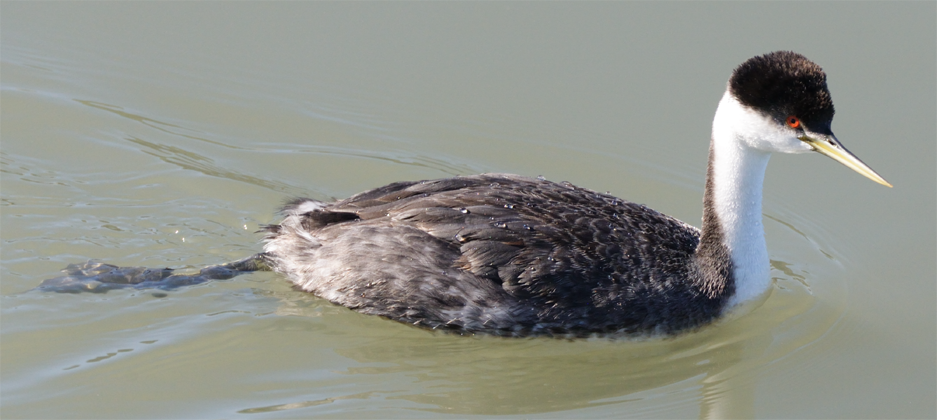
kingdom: Animalia
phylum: Chordata
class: Aves
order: Podicipediformes
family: Podicipedidae
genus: Aechmophorus
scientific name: Aechmophorus occidentalis
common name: Western grebe
